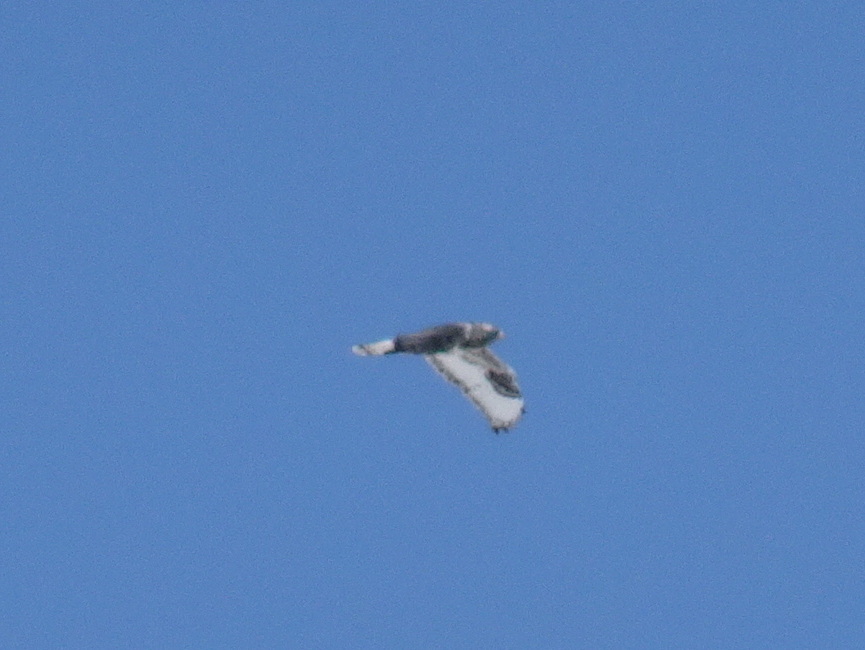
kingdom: Animalia
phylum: Chordata
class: Aves
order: Accipitriformes
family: Accipitridae
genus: Buteo
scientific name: Buteo lagopus
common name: Rough-legged buzzard
